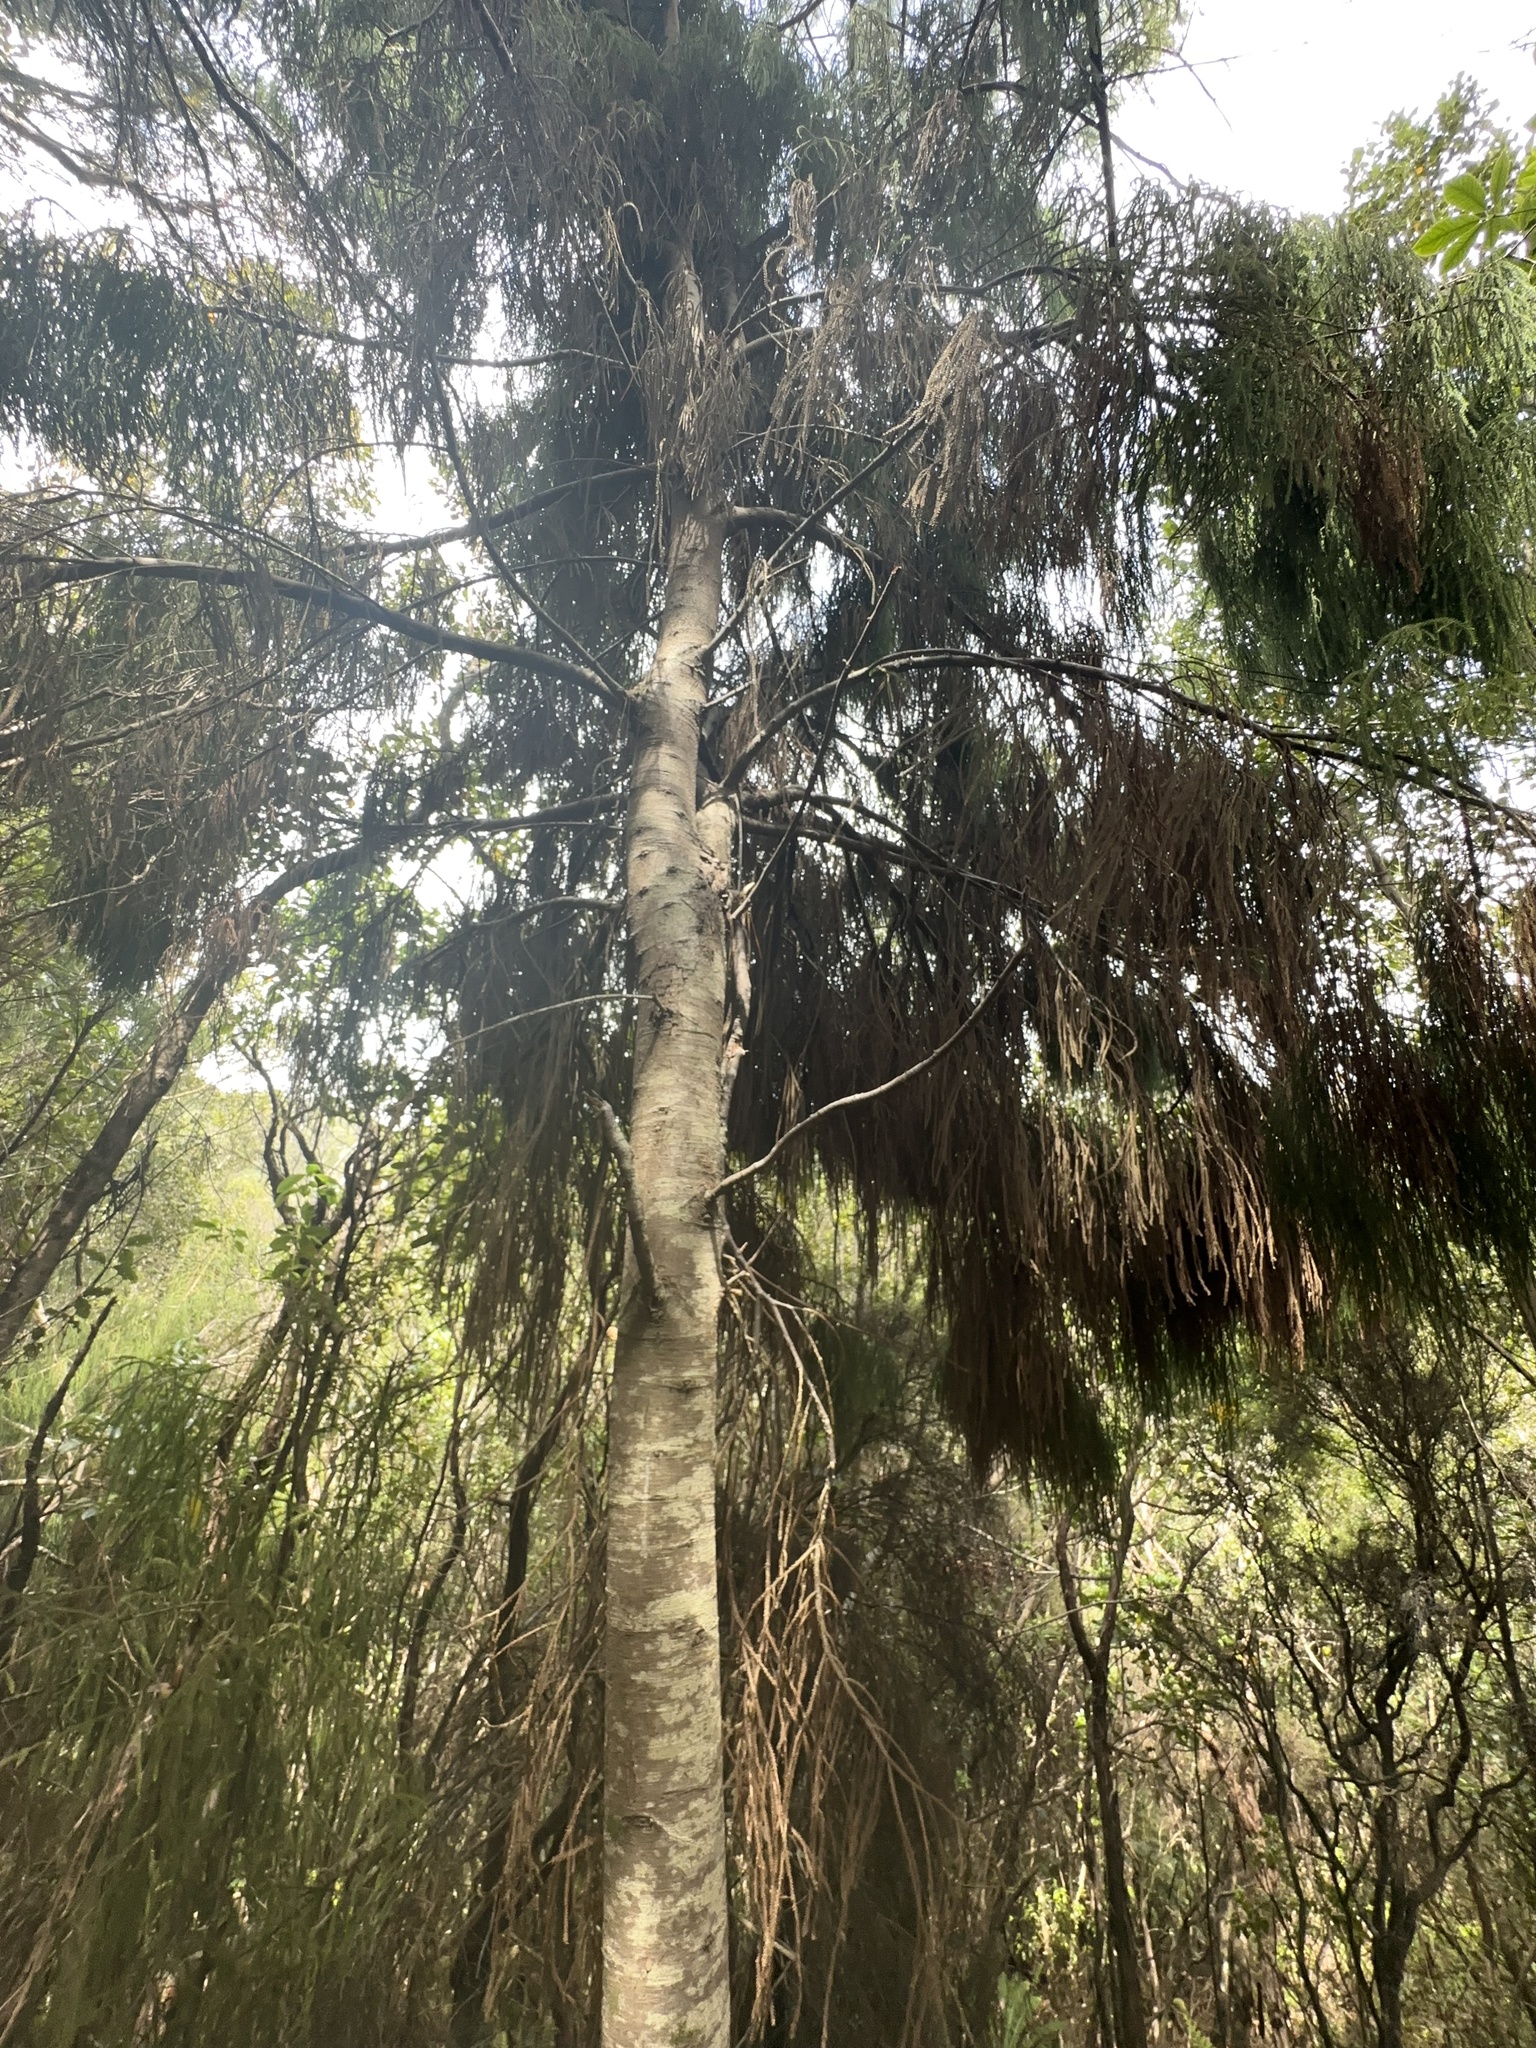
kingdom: Plantae
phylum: Tracheophyta
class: Pinopsida
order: Pinales
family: Podocarpaceae
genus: Dacrydium
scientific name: Dacrydium cupressinum
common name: Red pine
